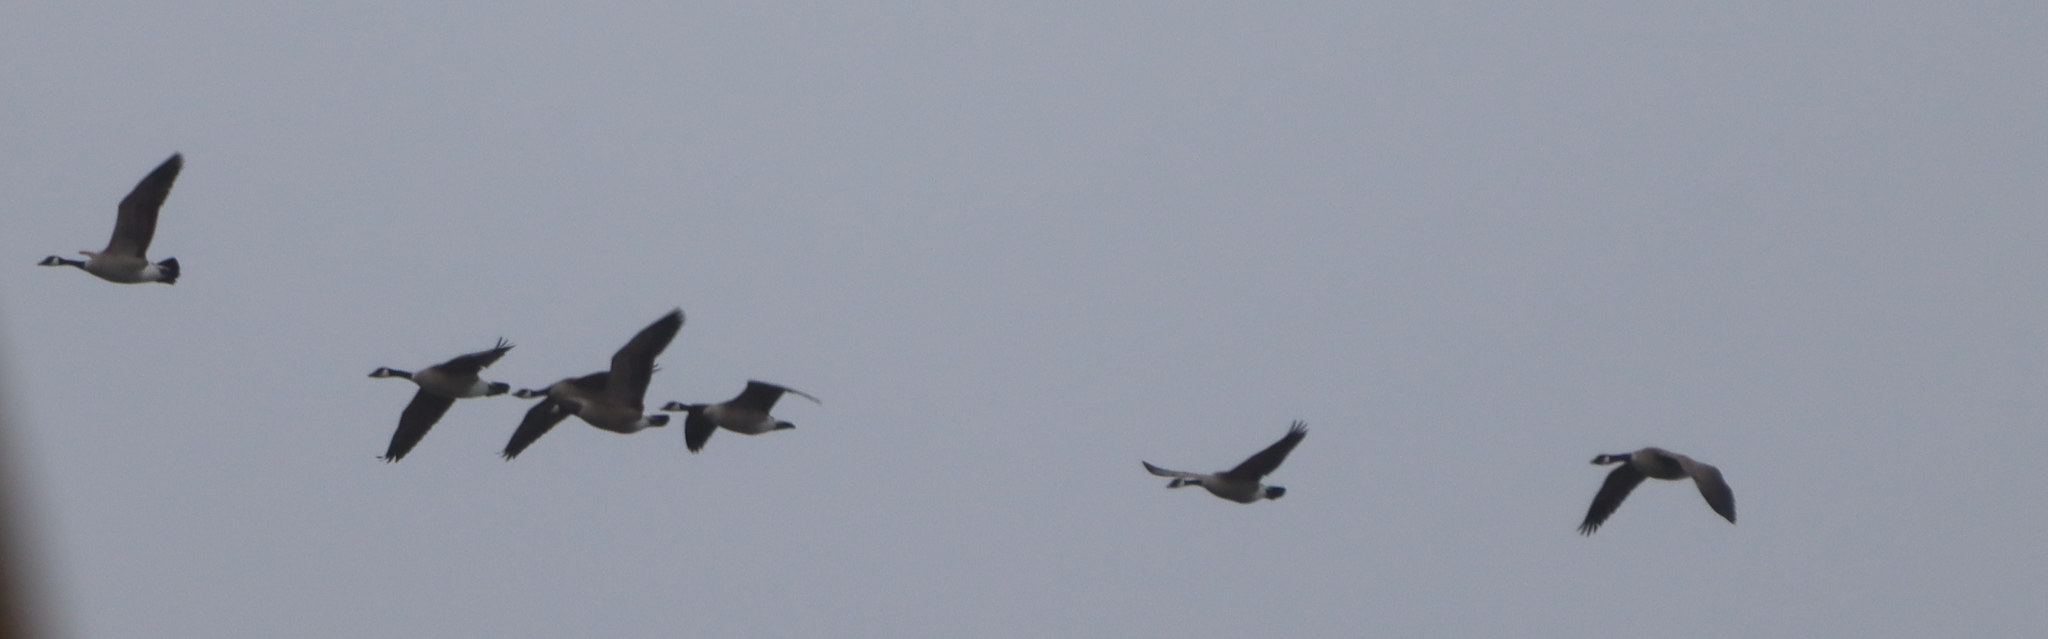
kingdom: Animalia
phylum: Chordata
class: Aves
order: Anseriformes
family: Anatidae
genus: Branta
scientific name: Branta canadensis
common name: Canada goose
